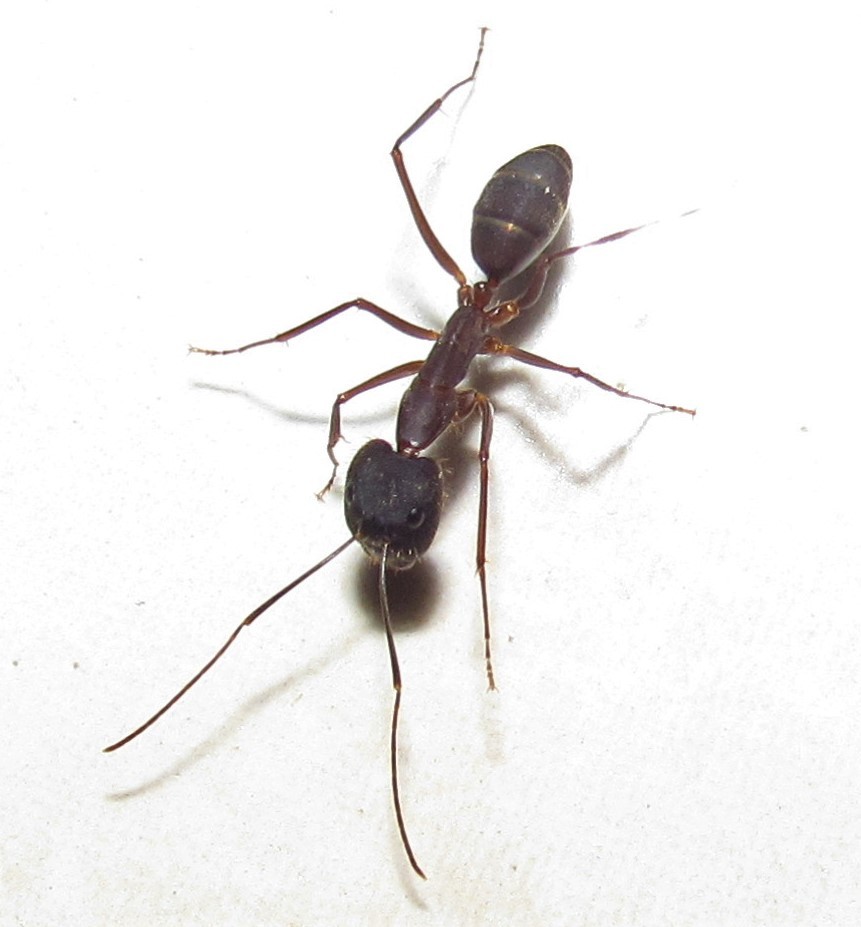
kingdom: Animalia
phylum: Arthropoda
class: Insecta
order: Hymenoptera
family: Formicidae
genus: Camponotus
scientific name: Camponotus lespesii
